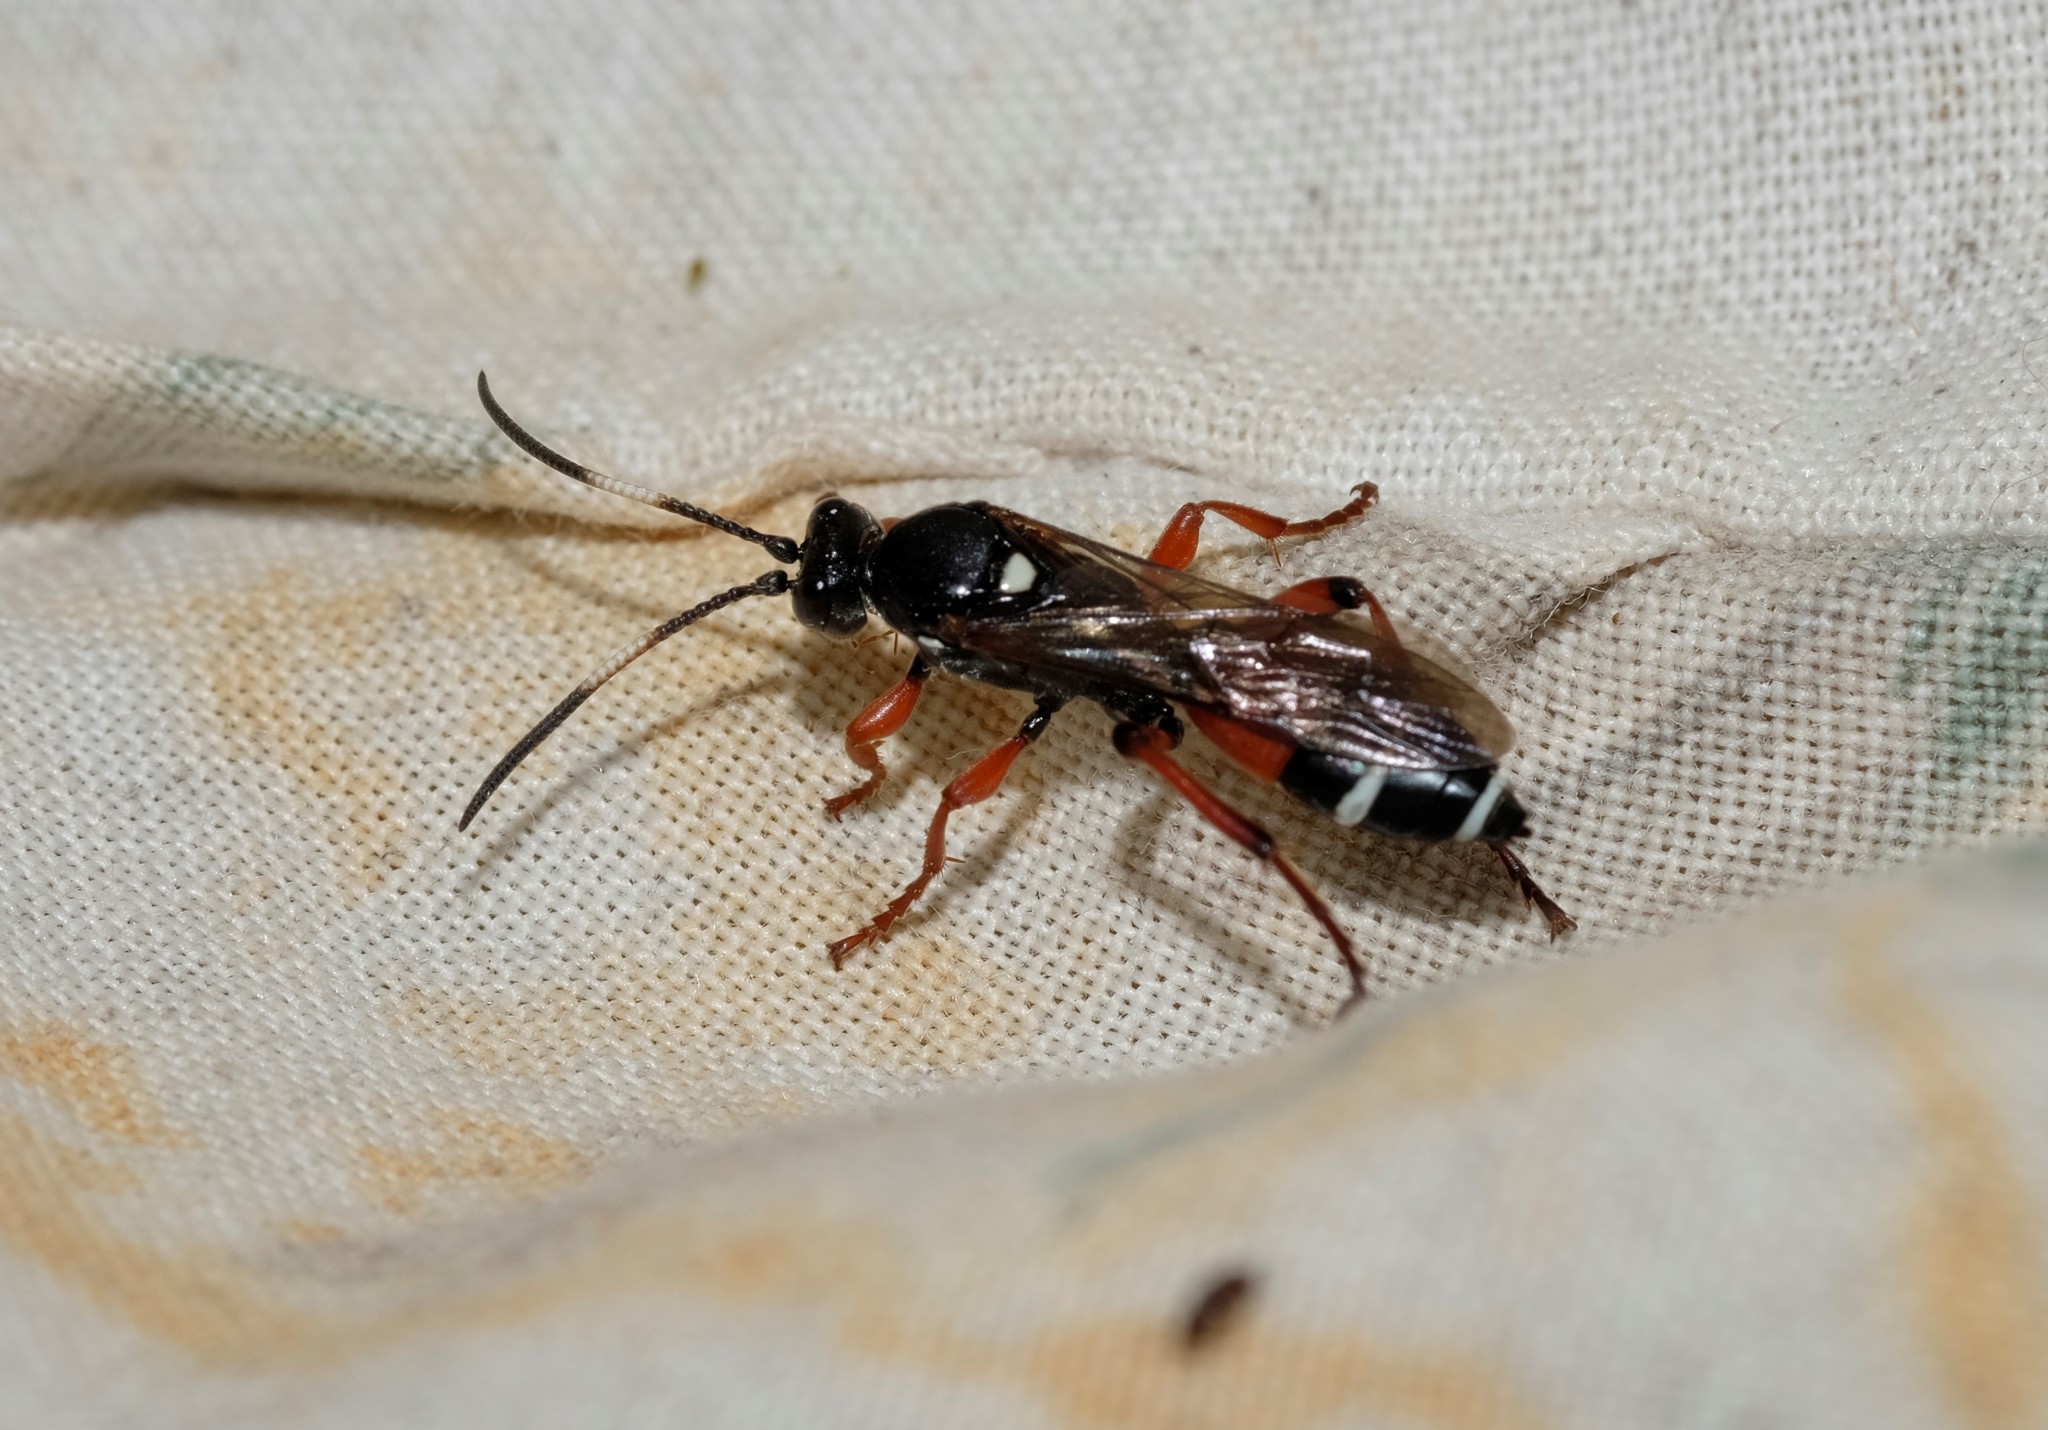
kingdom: Animalia
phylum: Arthropoda
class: Insecta
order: Hymenoptera
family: Ichneumonidae
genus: Ichneumon
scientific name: Ichneumon promissorius
